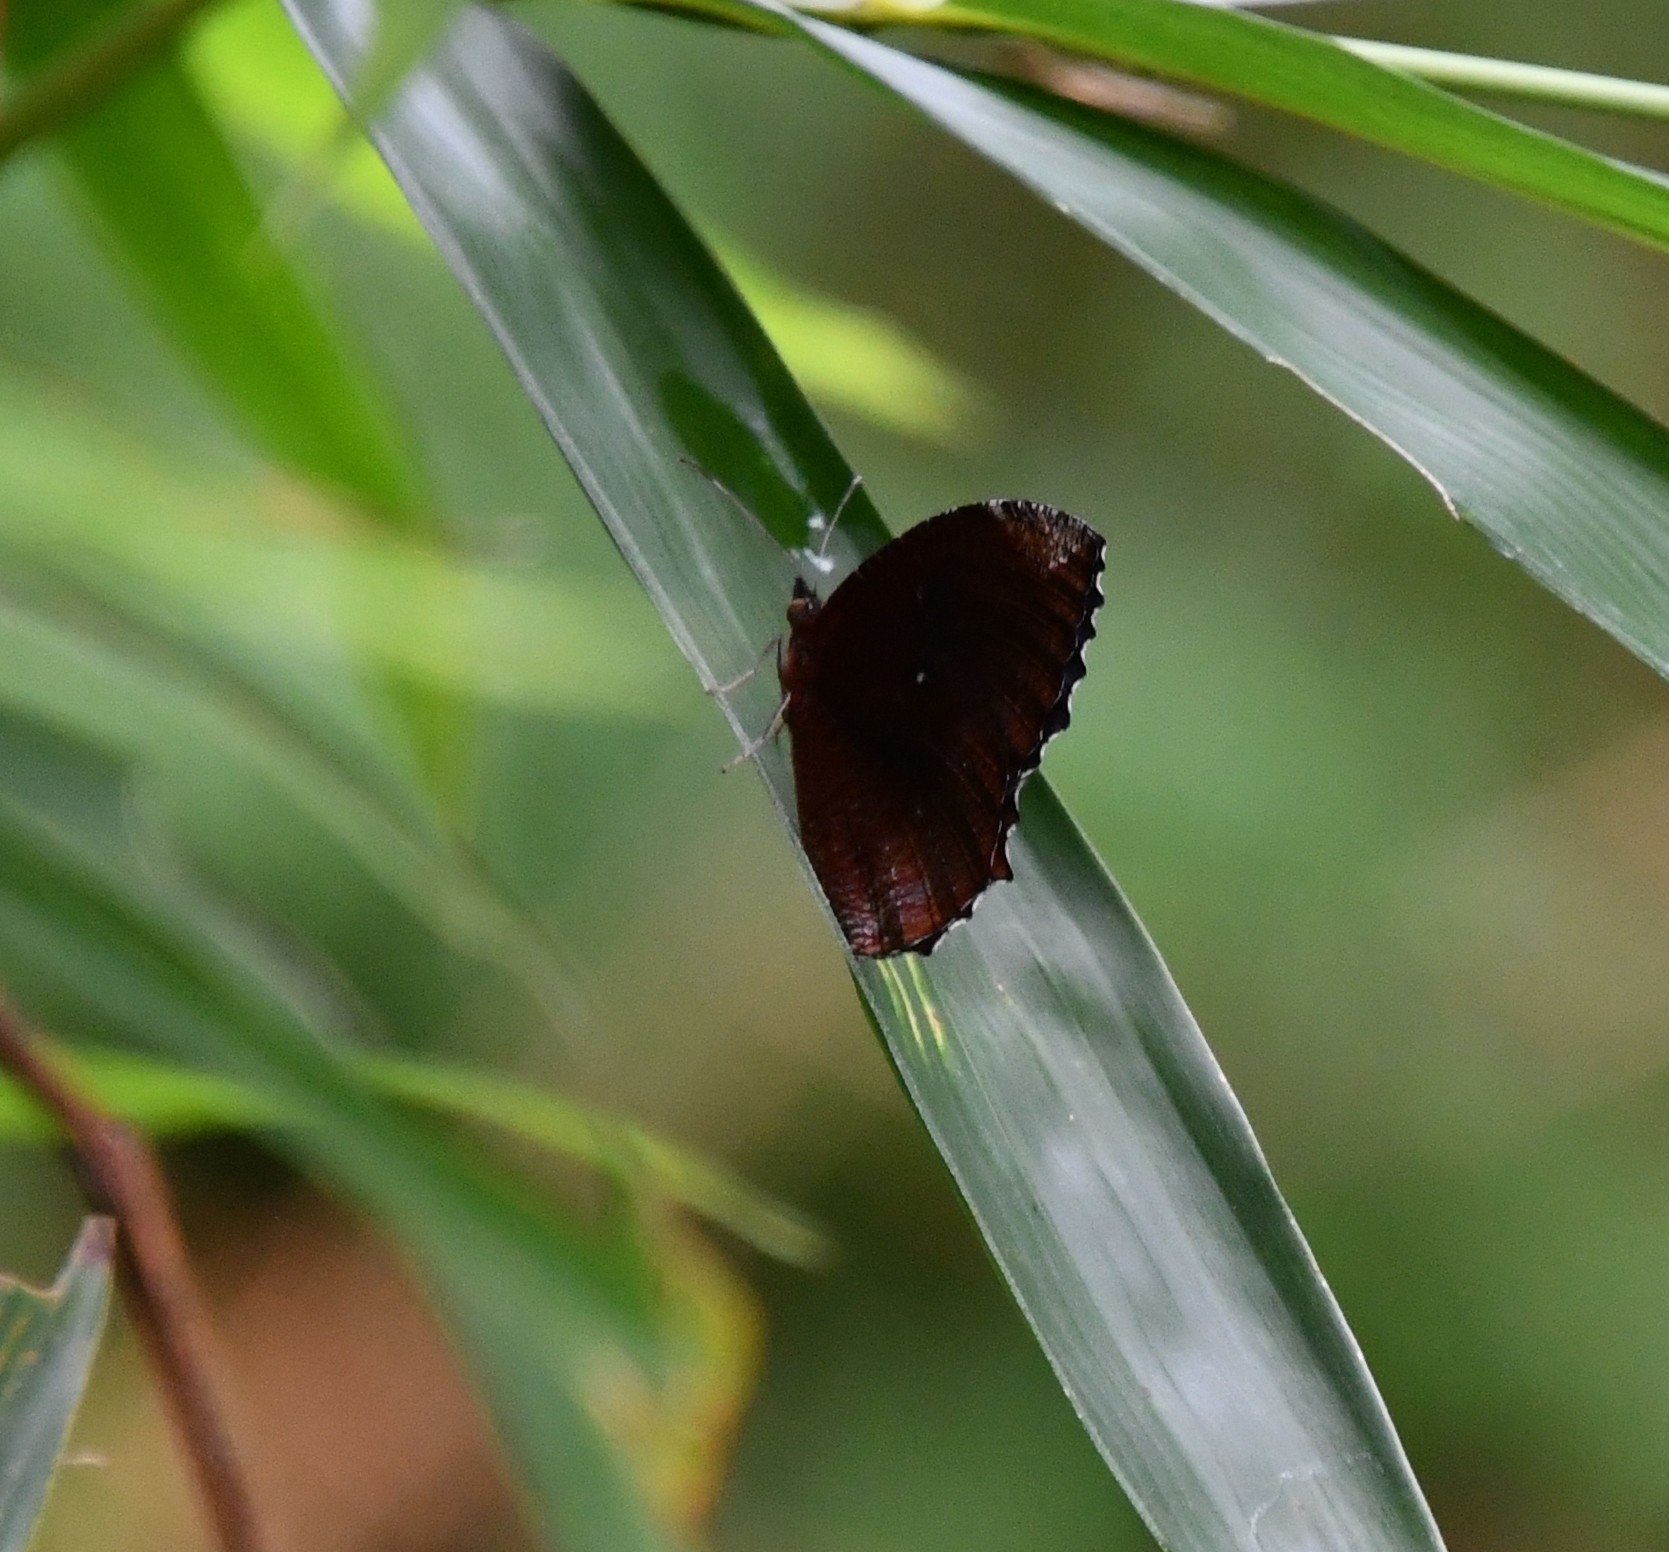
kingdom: Animalia
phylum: Arthropoda
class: Insecta
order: Lepidoptera
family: Nymphalidae
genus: Elymnias
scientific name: Elymnias hypermnestra
